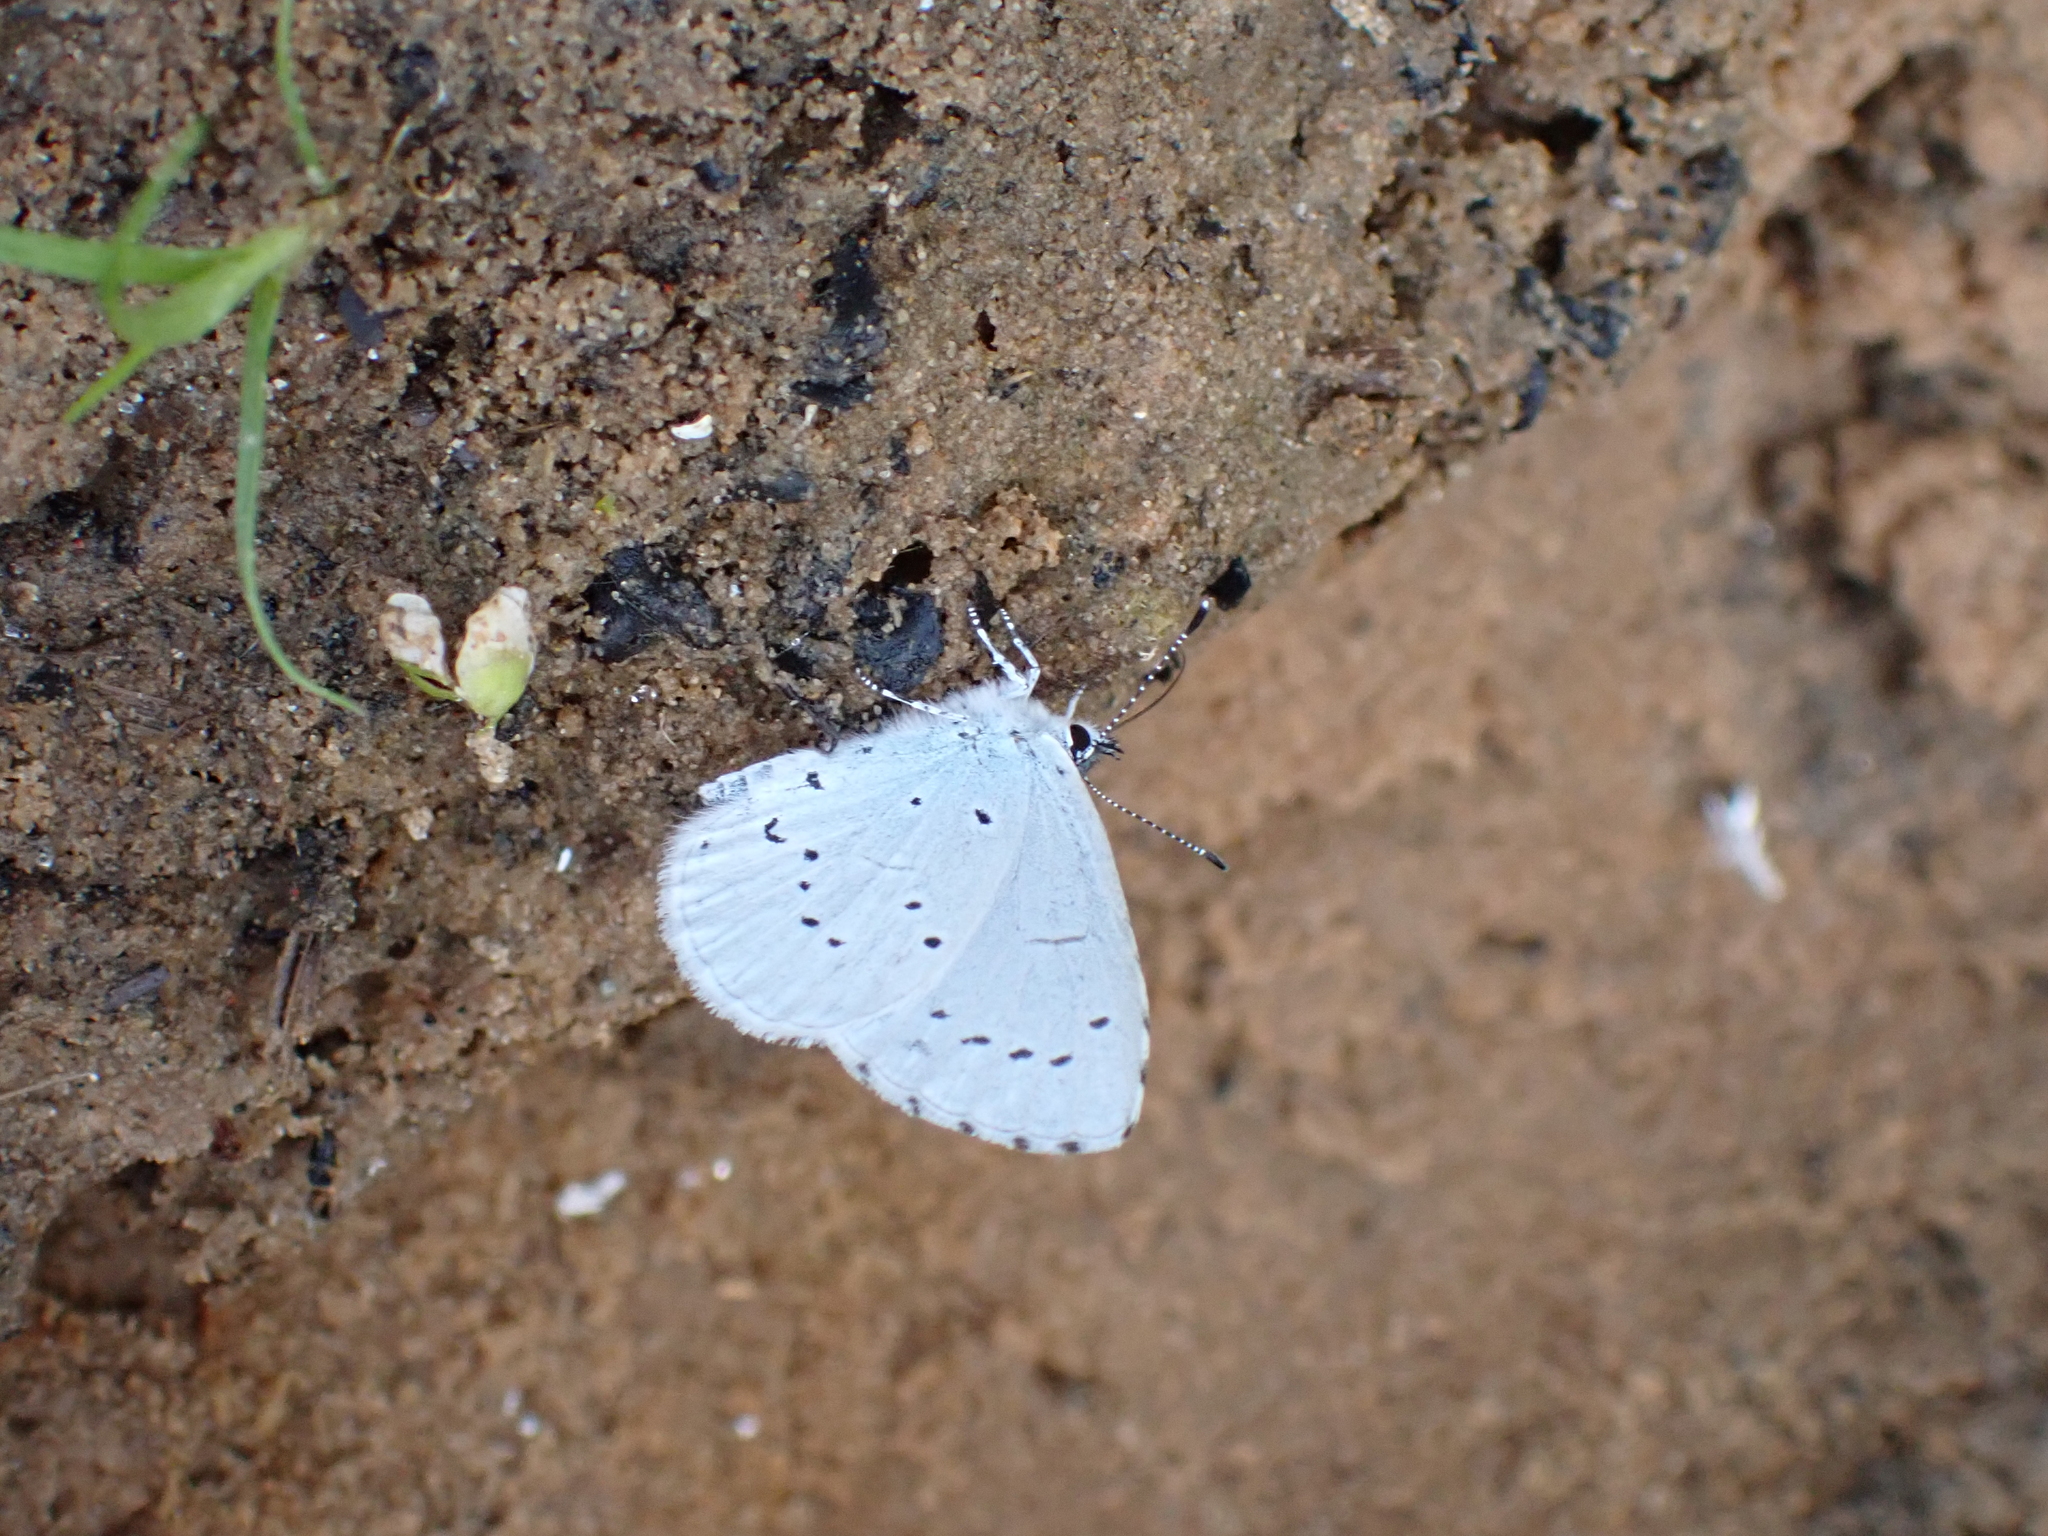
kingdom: Animalia
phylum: Arthropoda
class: Insecta
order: Lepidoptera
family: Lycaenidae
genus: Celastrina
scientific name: Celastrina argiolus
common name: Holly blue
